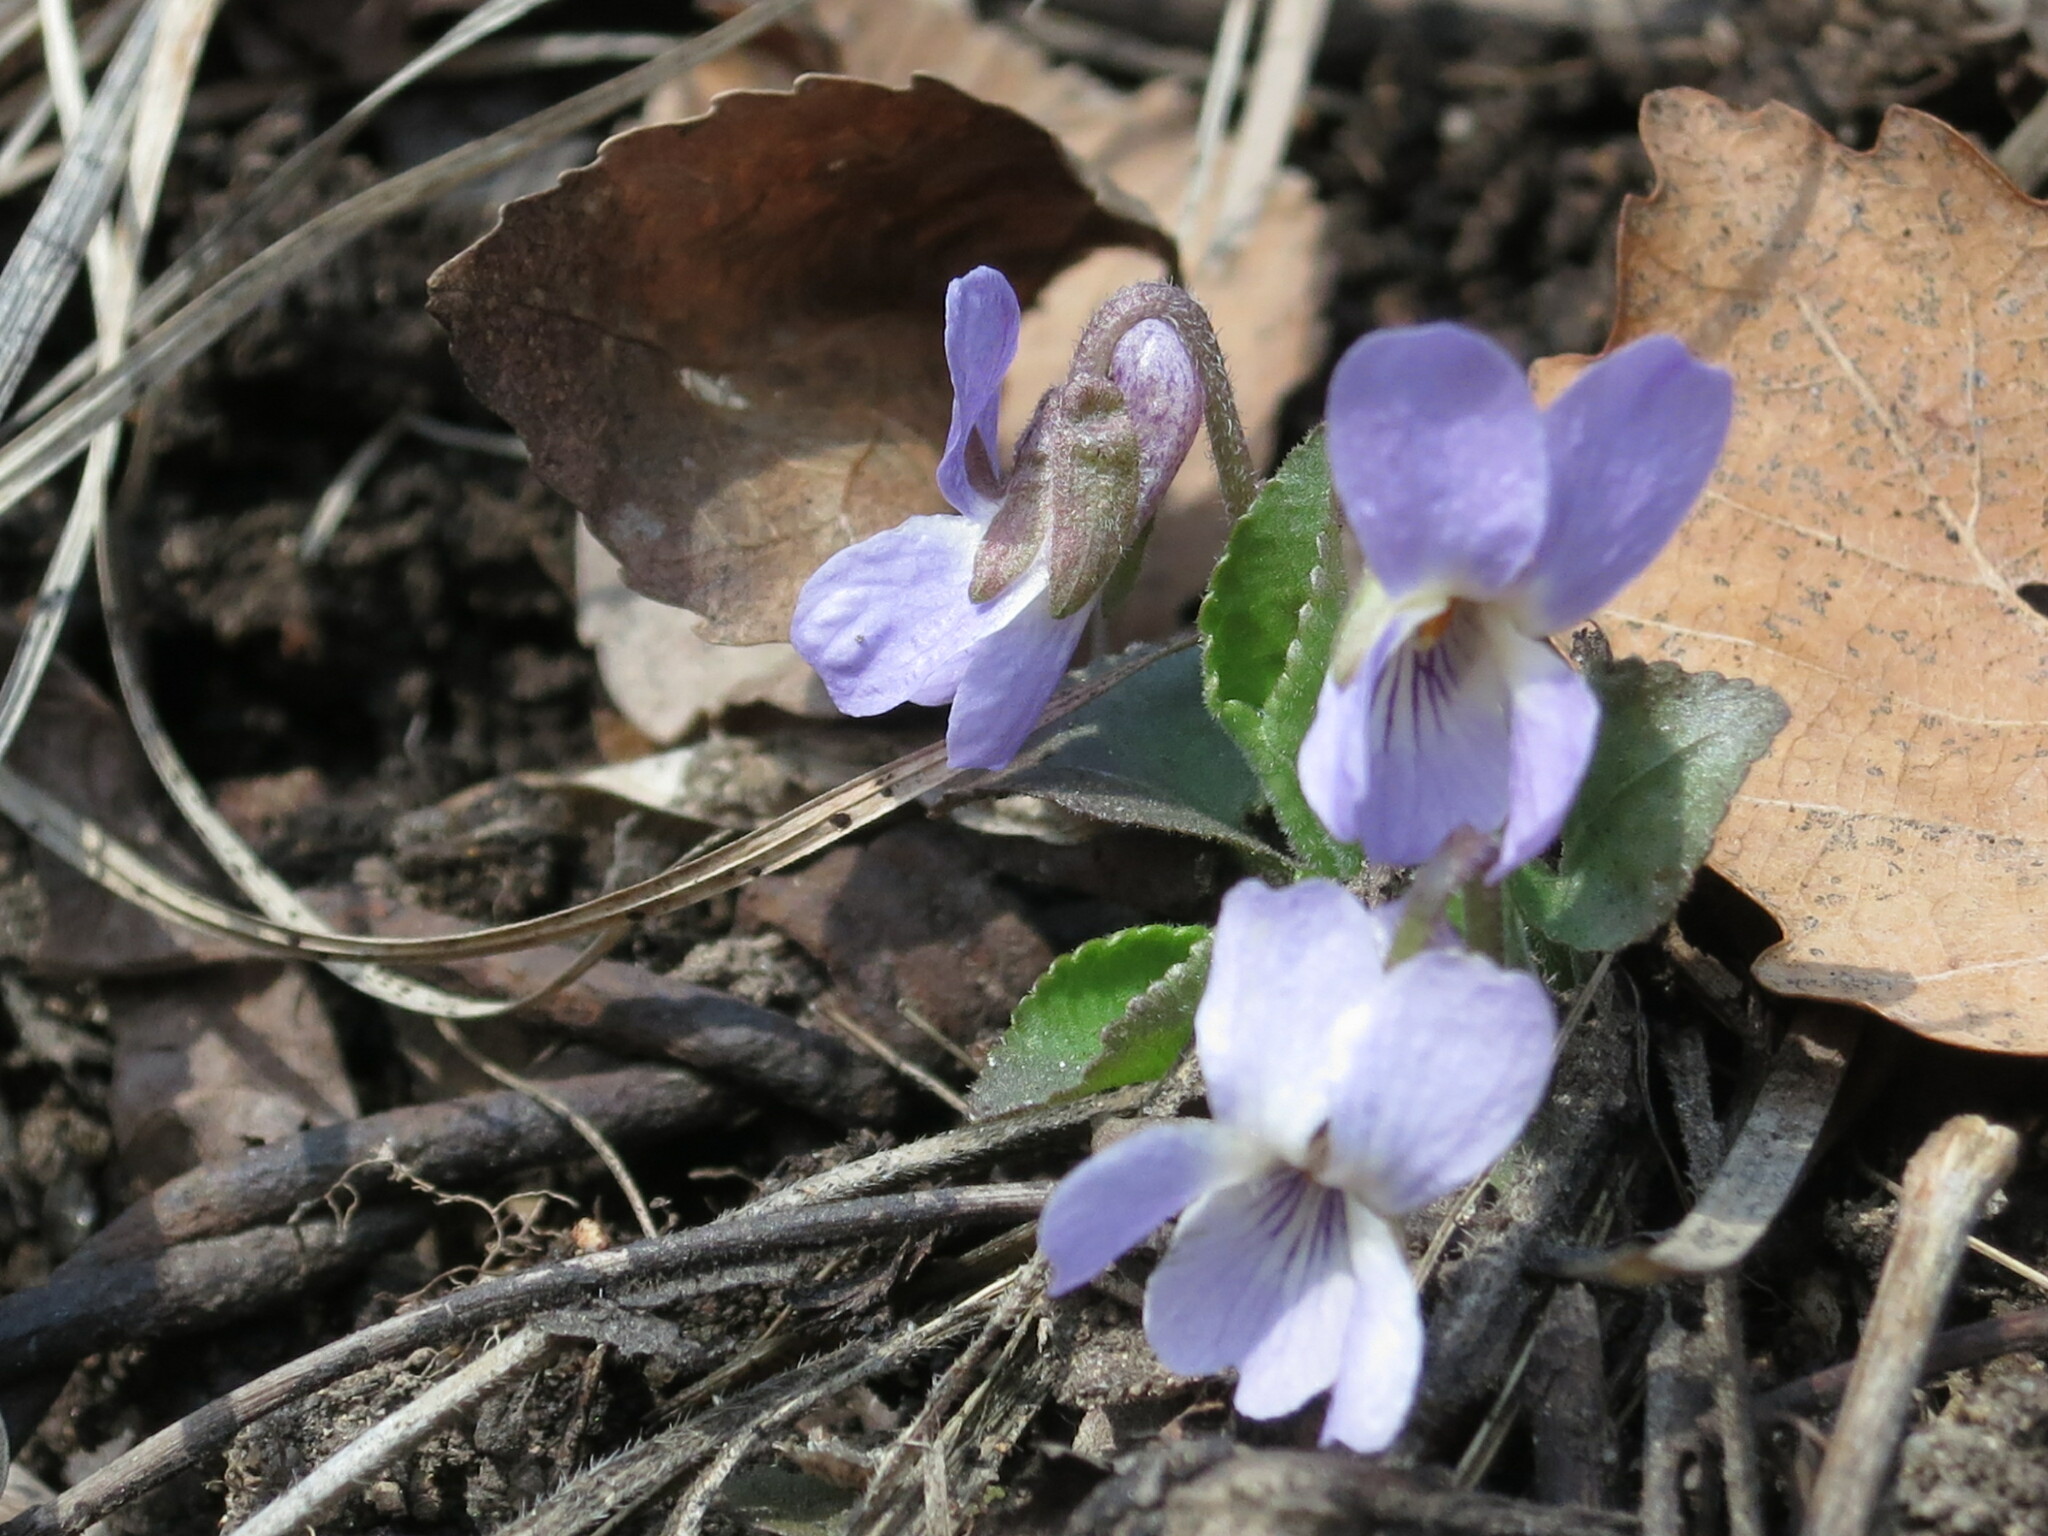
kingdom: Plantae
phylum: Tracheophyta
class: Magnoliopsida
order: Malpighiales
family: Violaceae
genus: Viola
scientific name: Viola collina
